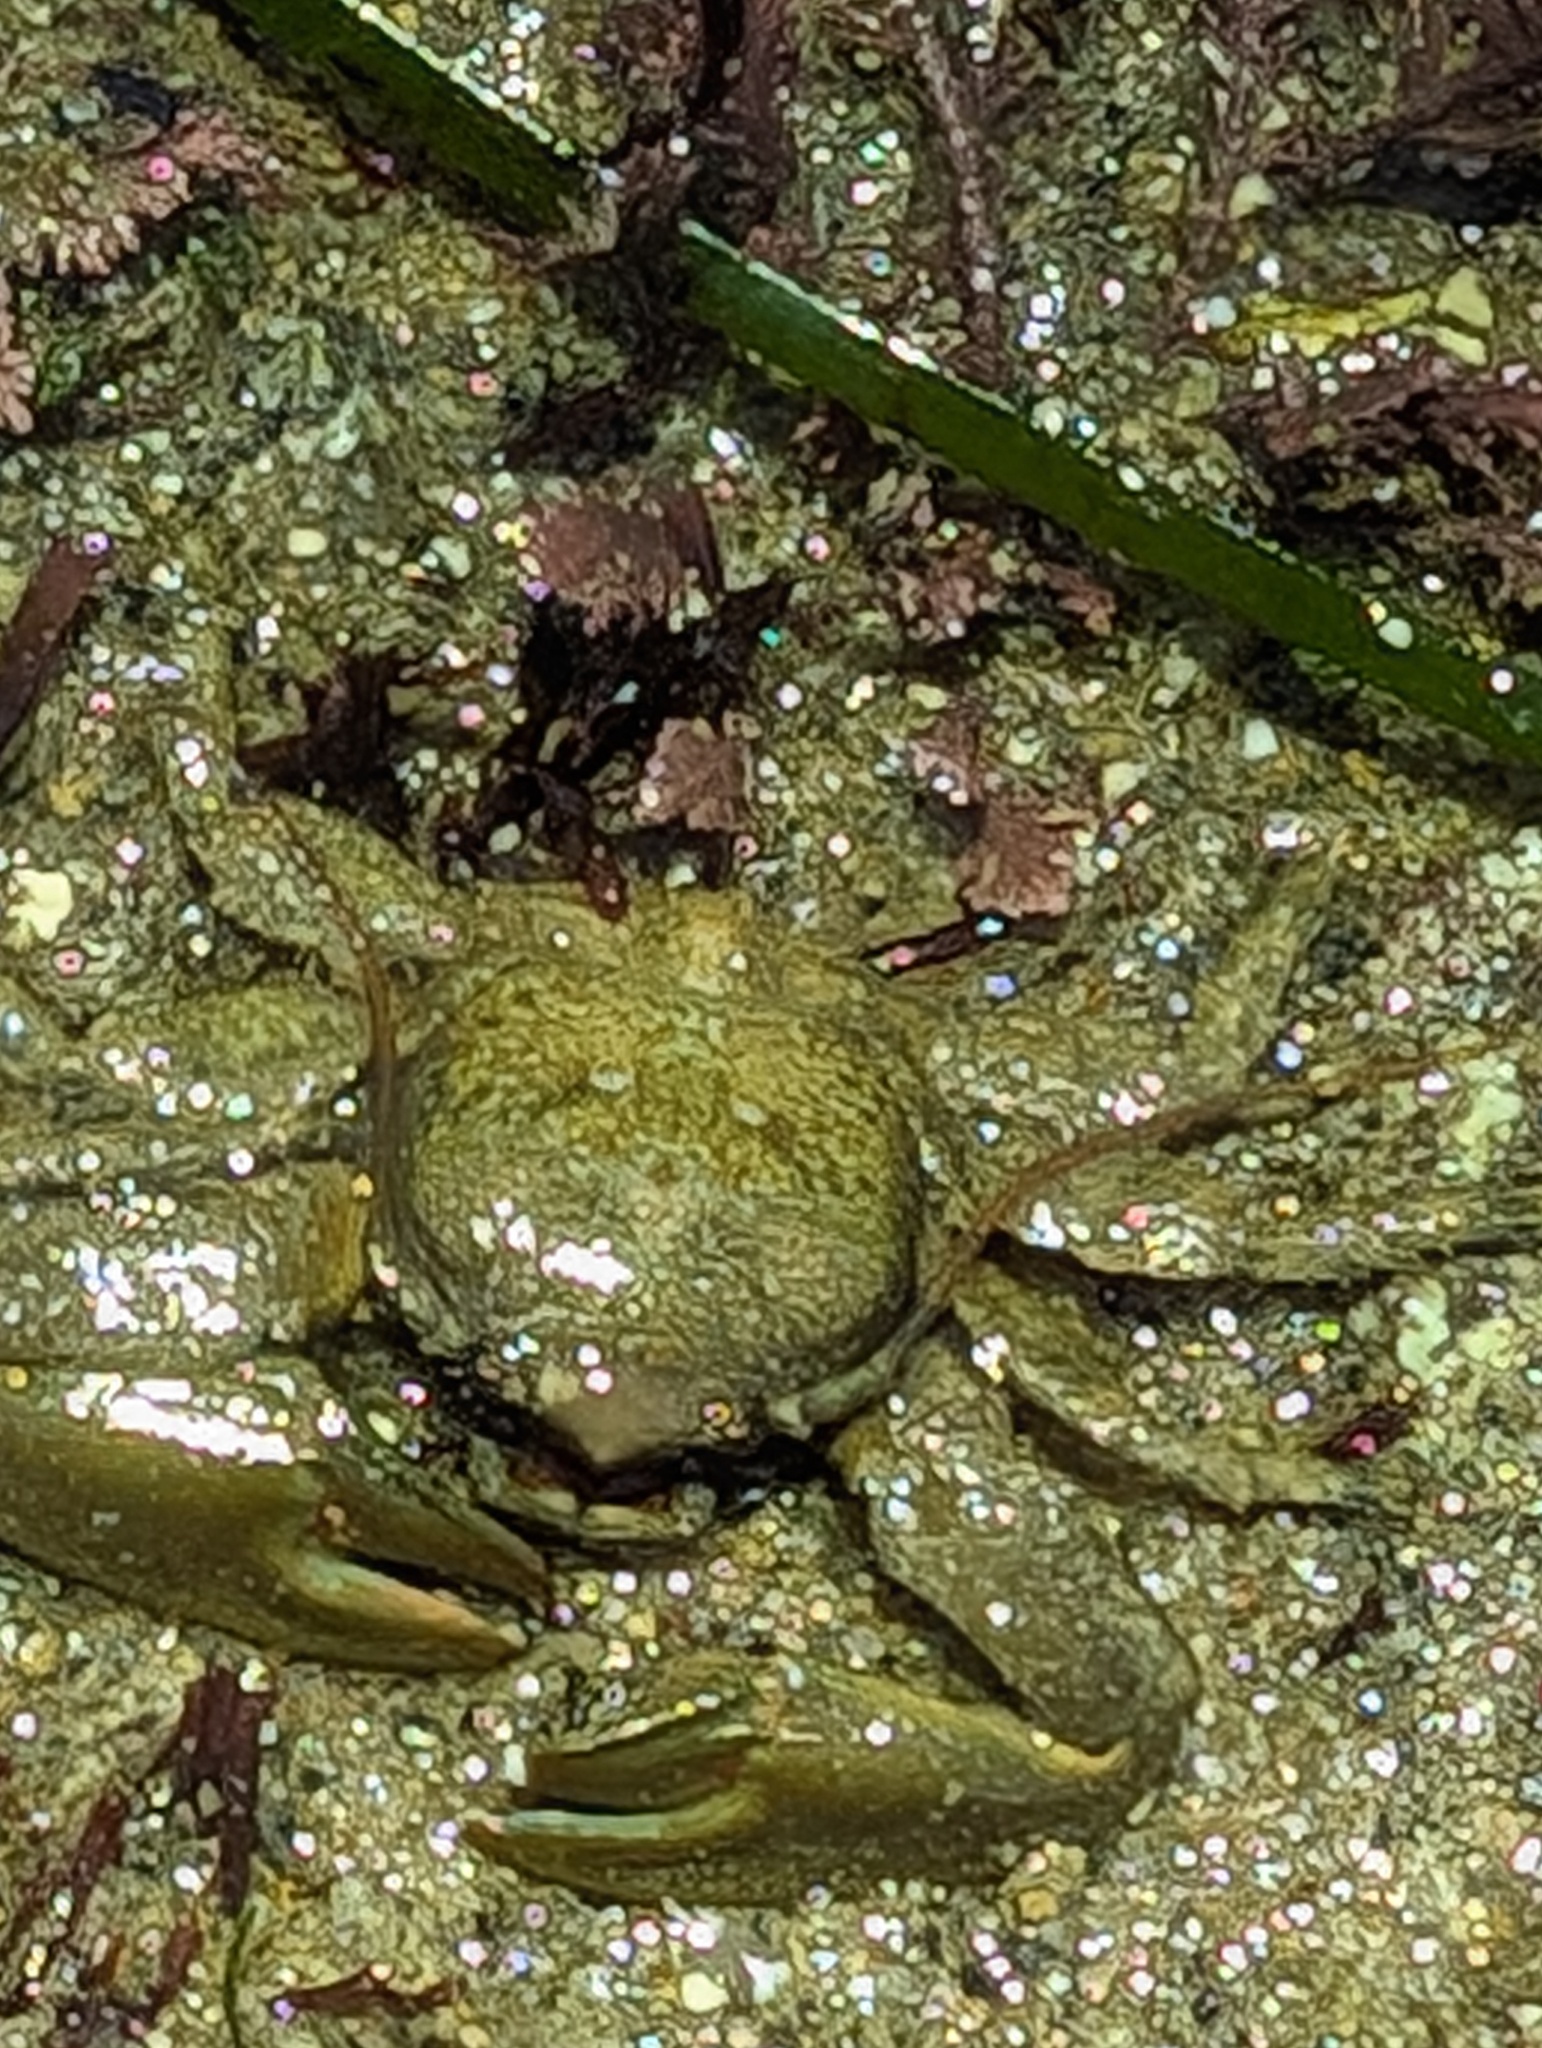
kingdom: Animalia
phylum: Arthropoda
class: Malacostraca
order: Decapoda
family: Porcellanidae
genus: Petrolisthes
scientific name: Petrolisthes cabrilloi
